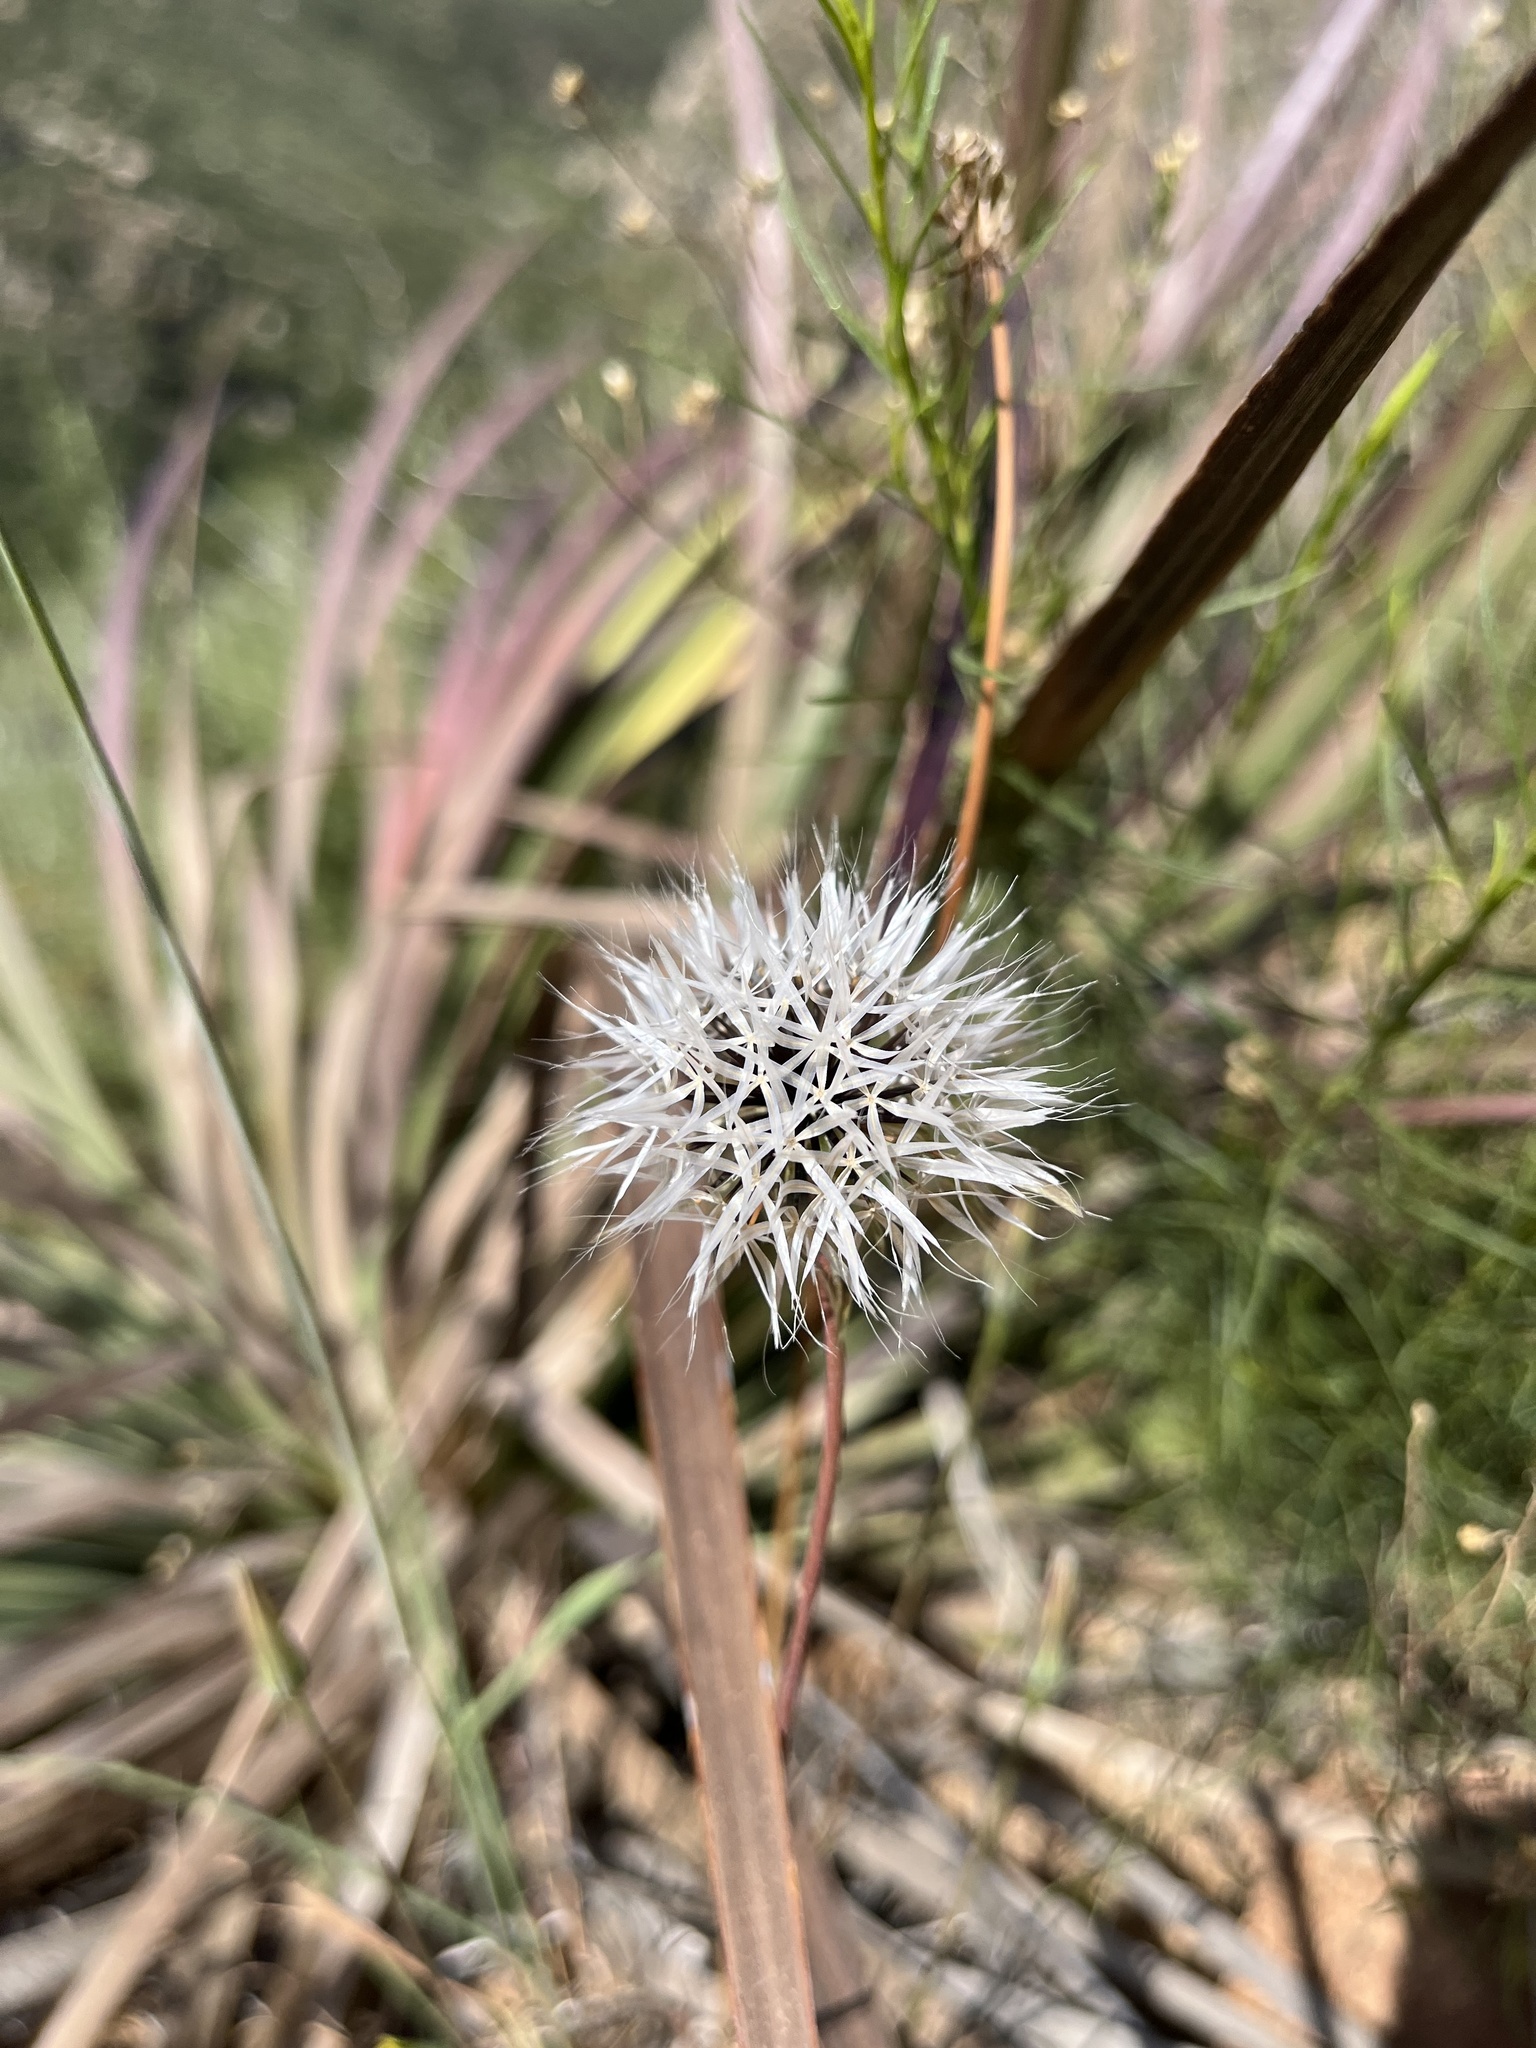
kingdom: Plantae
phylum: Tracheophyta
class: Magnoliopsida
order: Asterales
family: Asteraceae
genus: Microseris
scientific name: Microseris lindleyi
